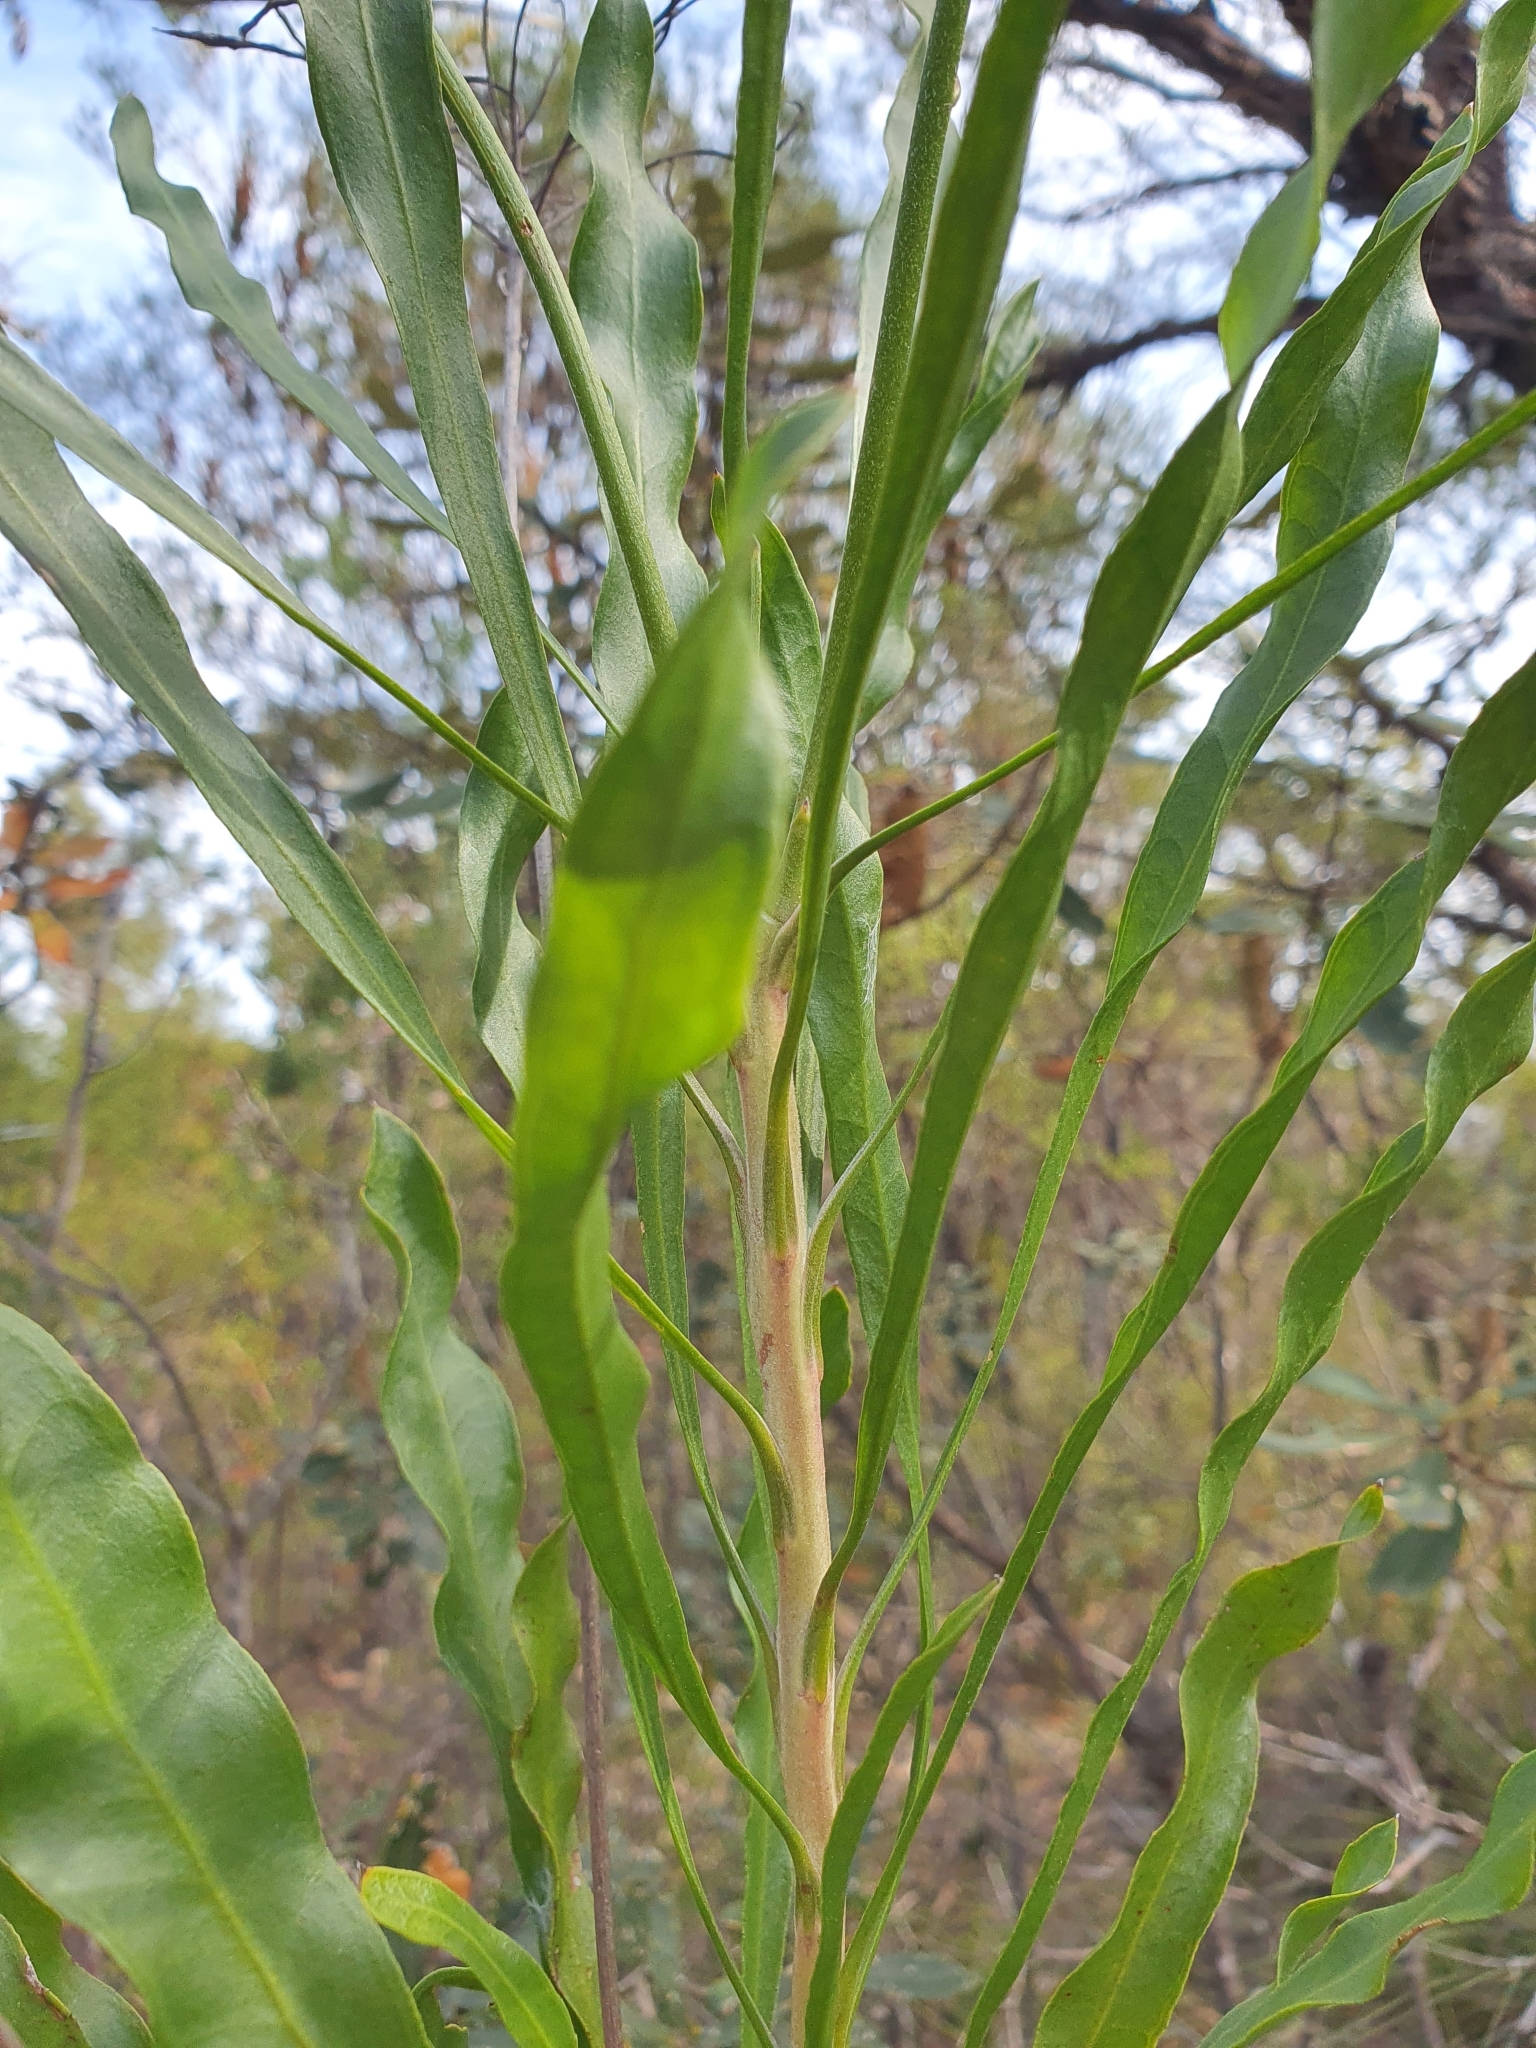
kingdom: Plantae
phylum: Tracheophyta
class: Magnoliopsida
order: Proteales
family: Proteaceae
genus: Conospermum
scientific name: Conospermum longifolium
